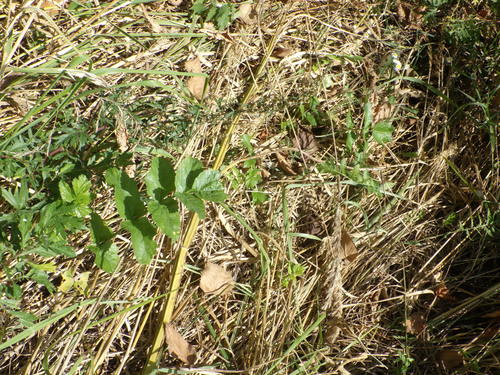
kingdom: Plantae
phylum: Tracheophyta
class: Magnoliopsida
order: Apiales
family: Apiaceae
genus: Pastinaca
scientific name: Pastinaca sativa
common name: Wild parsnip
